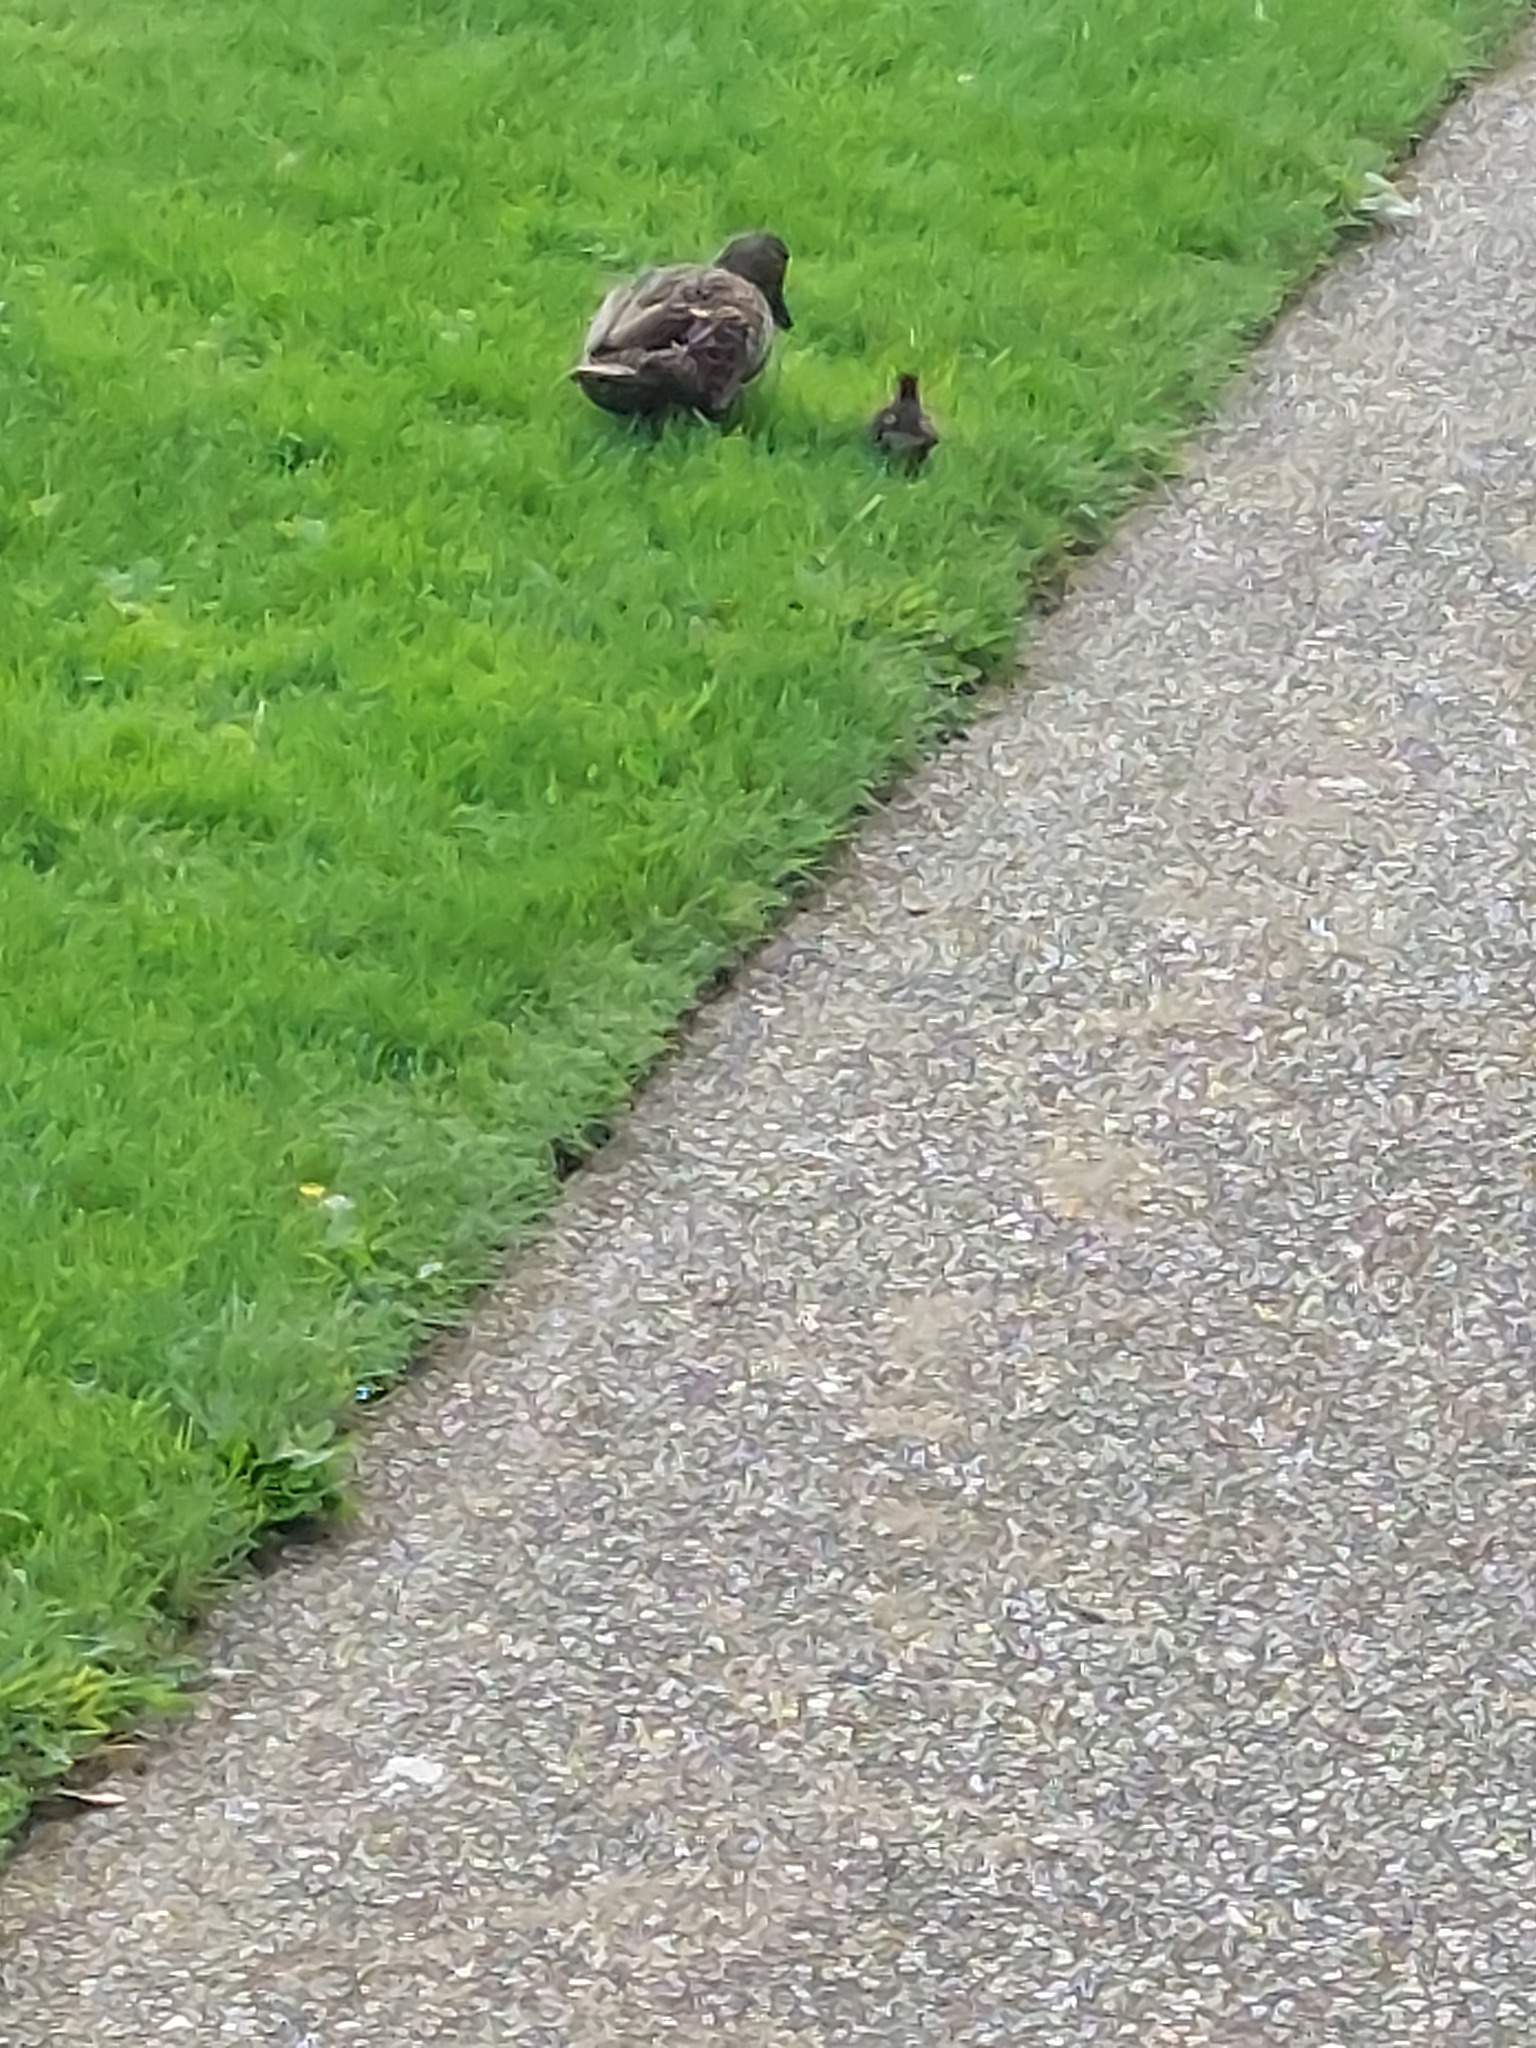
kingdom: Animalia
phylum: Chordata
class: Aves
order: Anseriformes
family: Anatidae
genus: Anas
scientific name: Anas platyrhynchos
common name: Mallard
